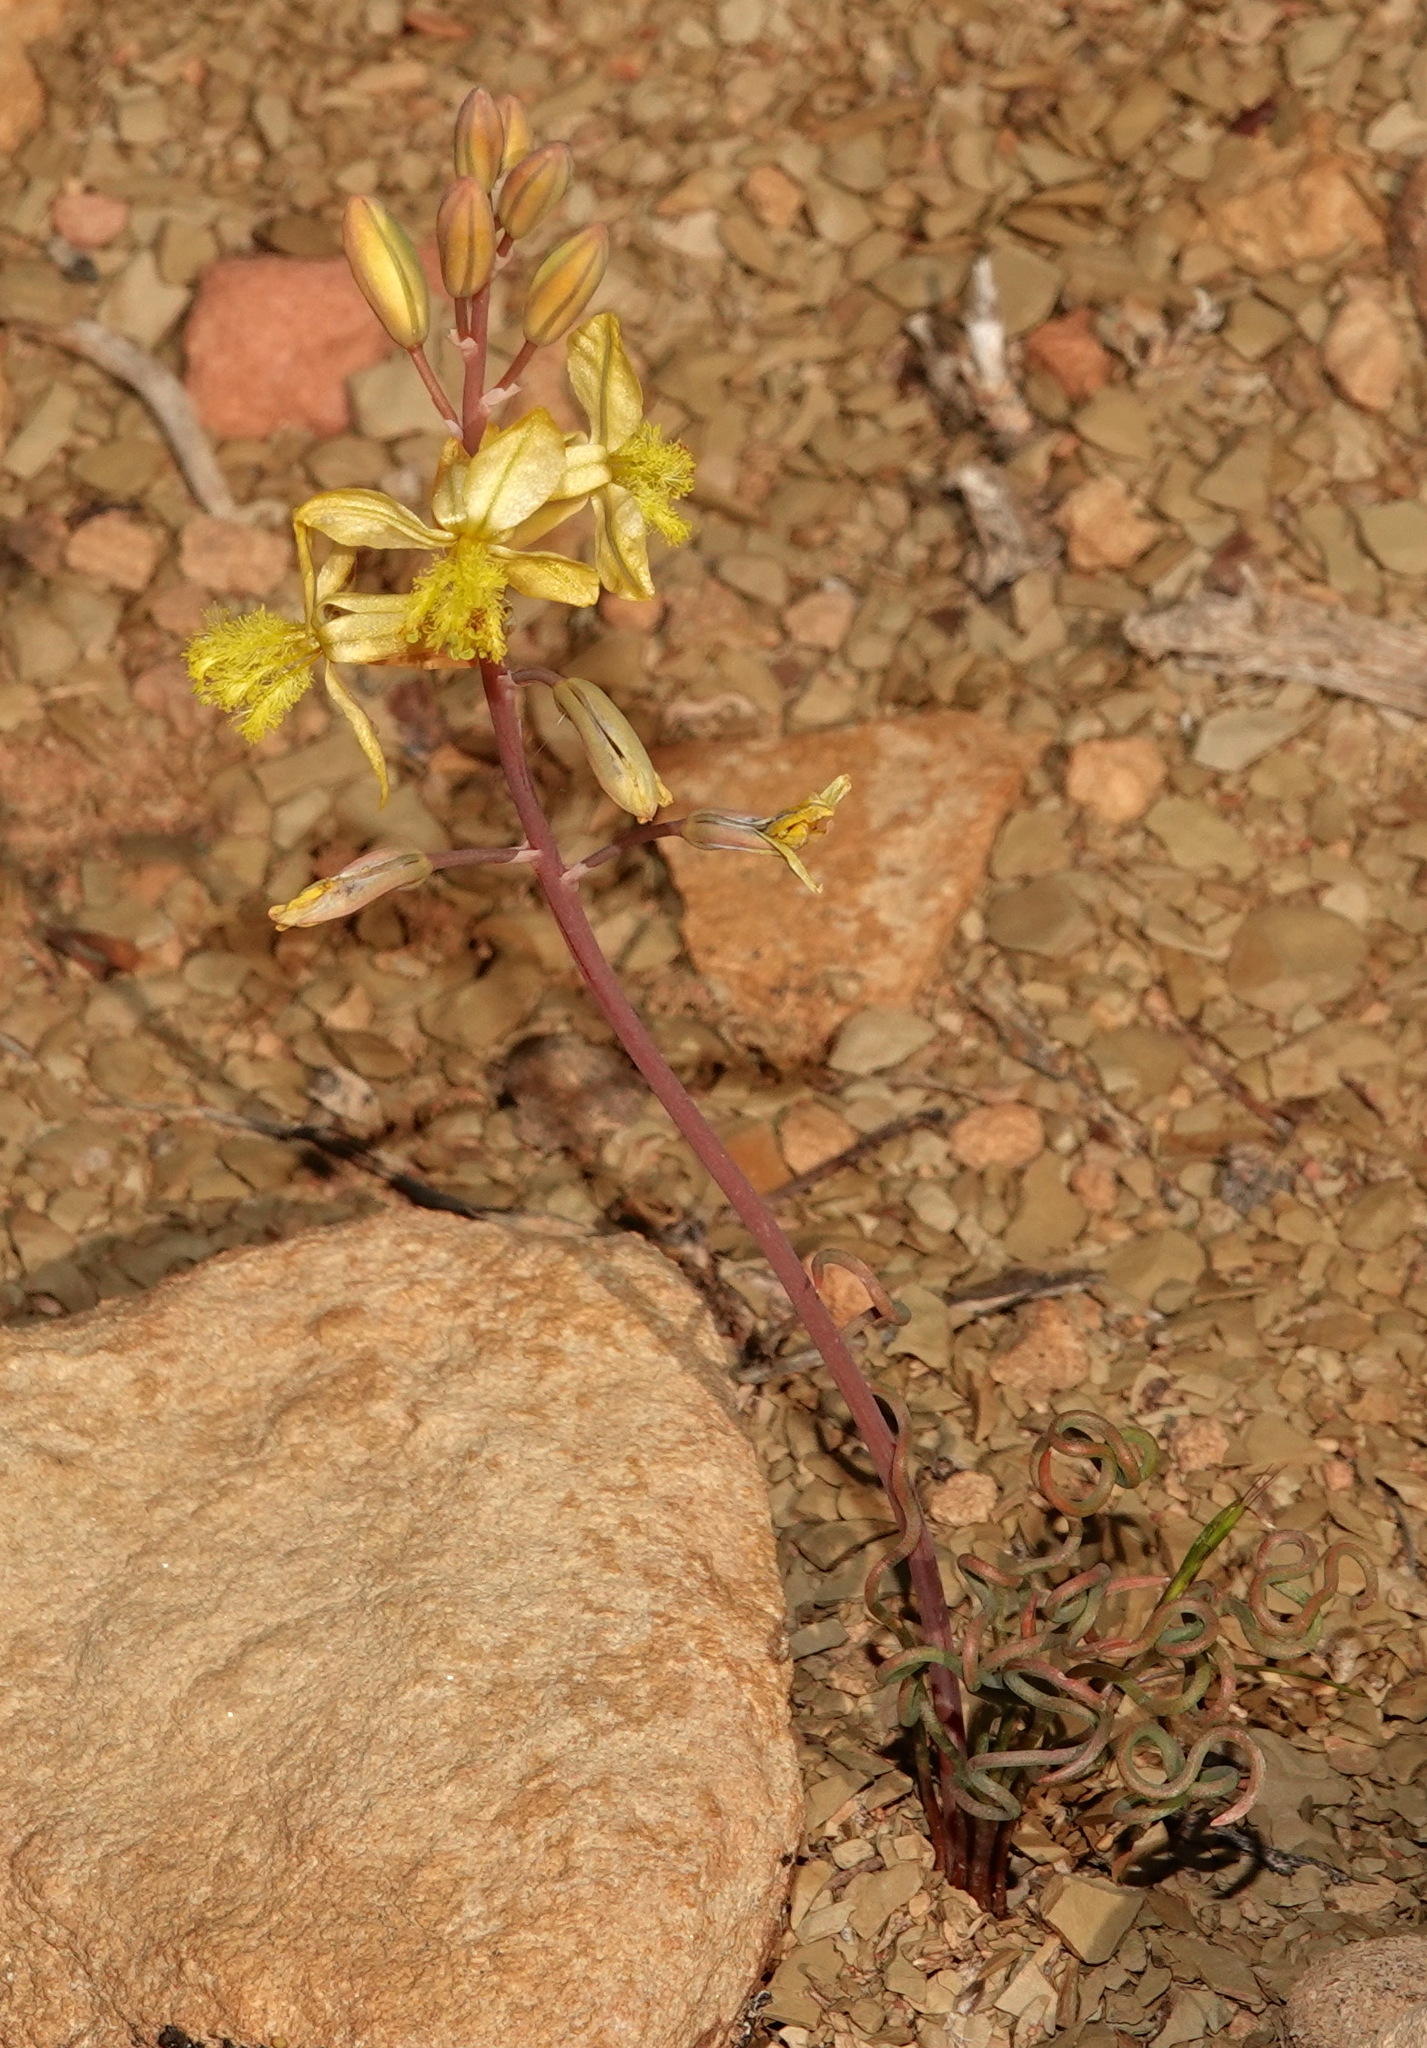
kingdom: Plantae
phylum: Tracheophyta
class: Liliopsida
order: Asparagales
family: Asphodelaceae
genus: Bulbine
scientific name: Bulbine torta
